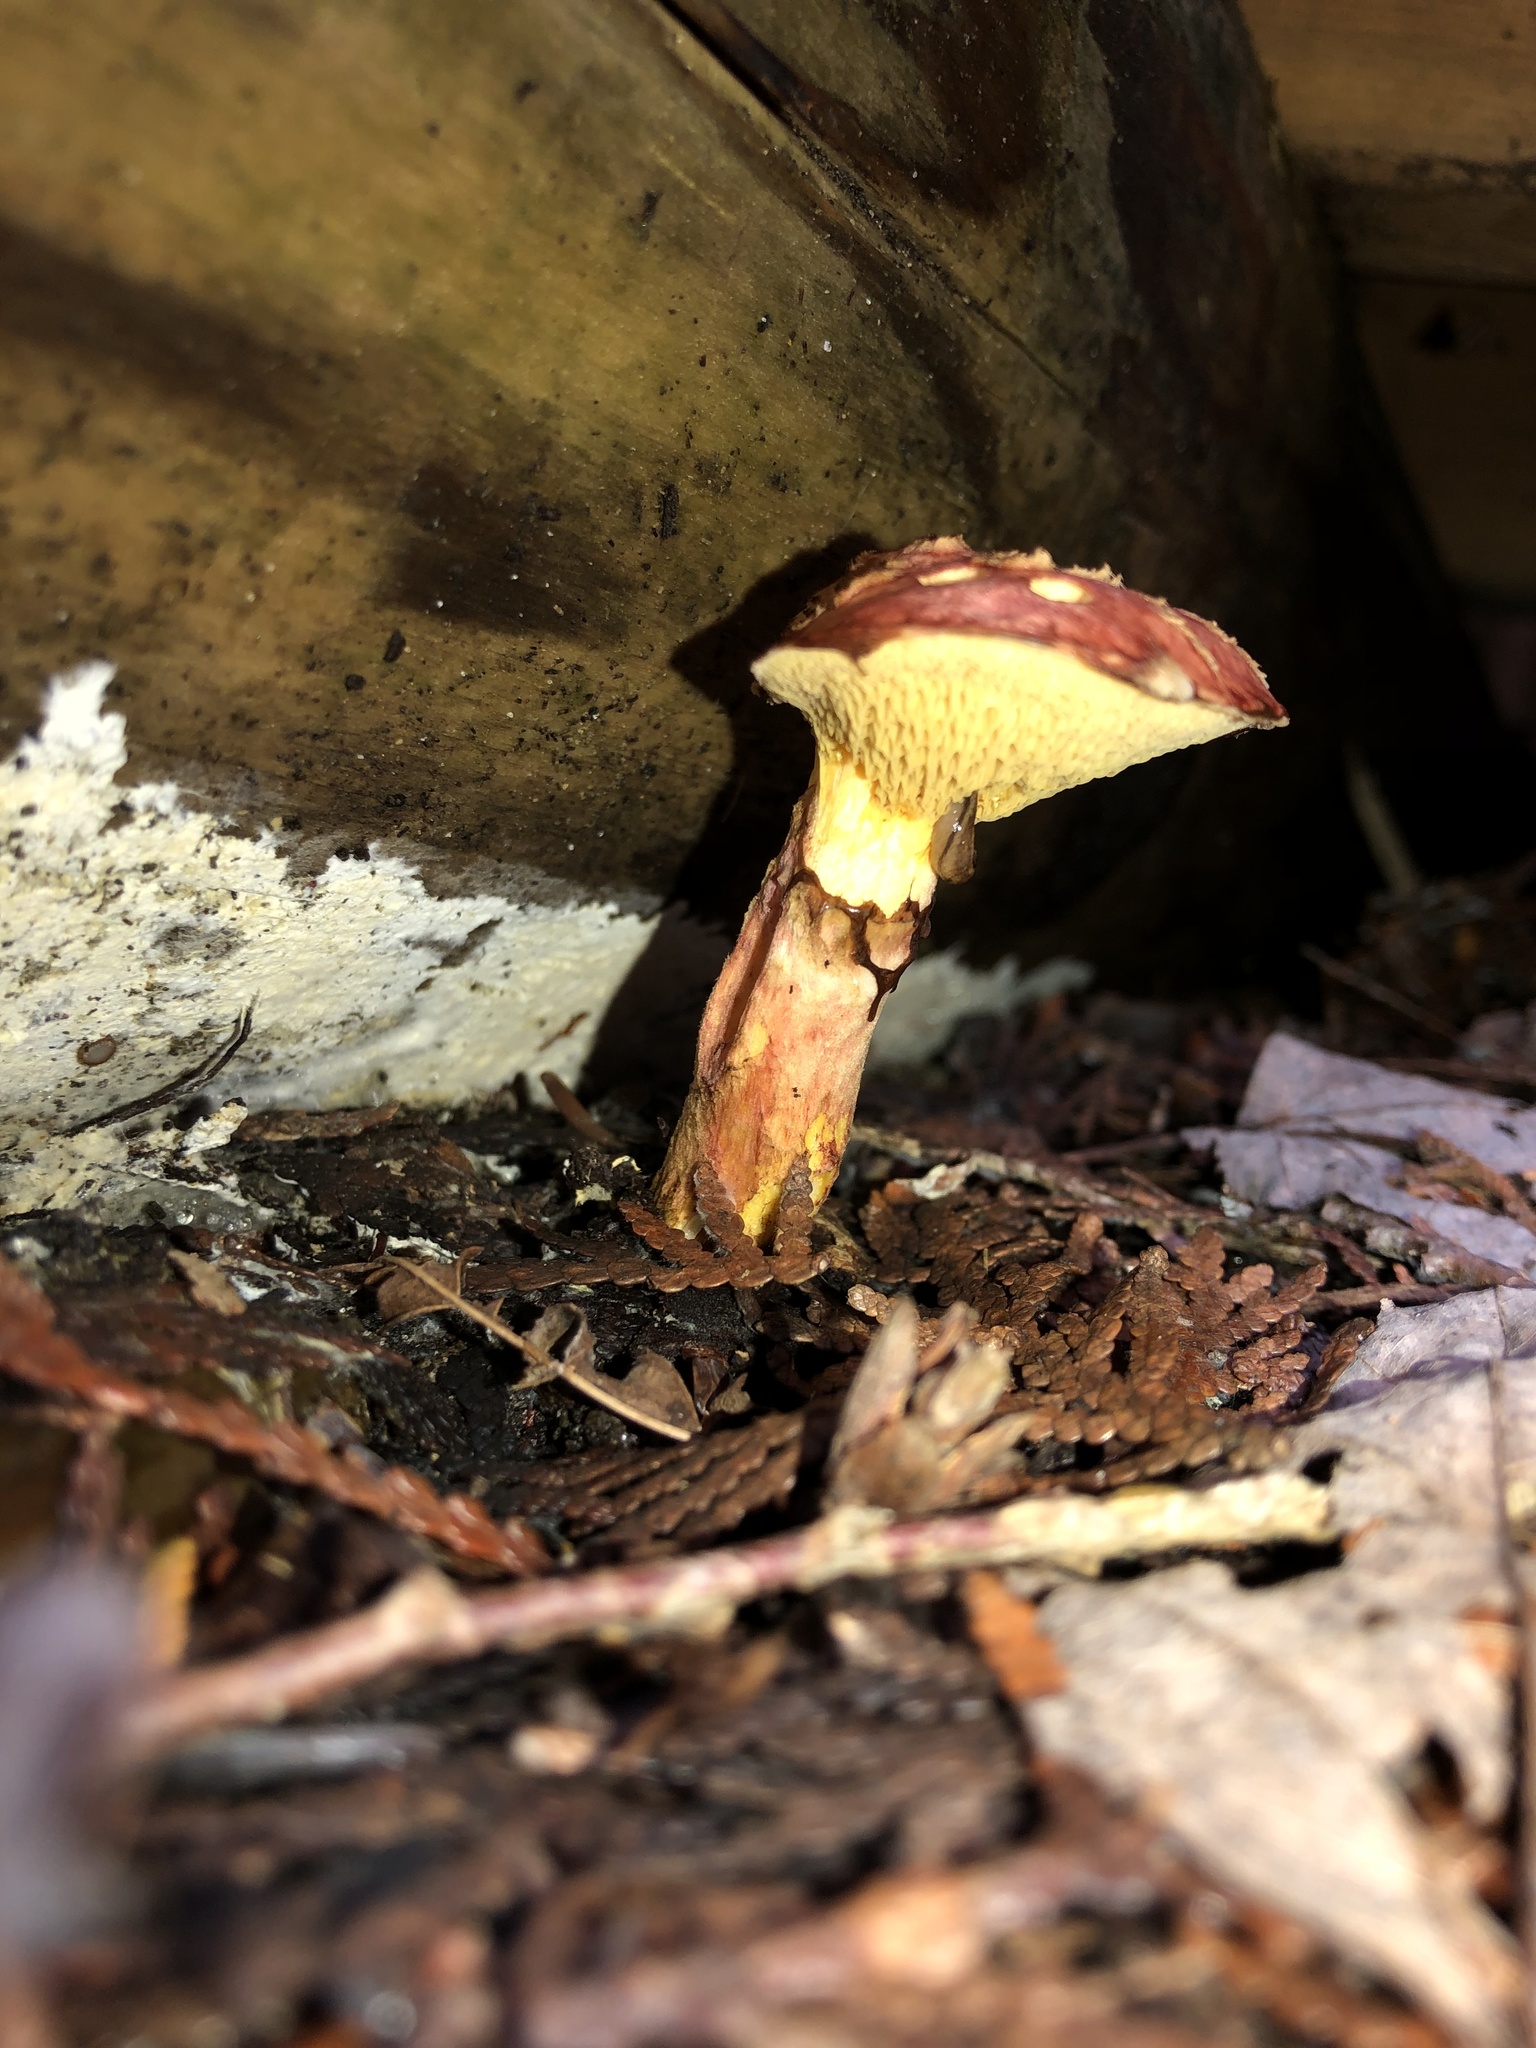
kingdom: Fungi
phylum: Basidiomycota
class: Agaricomycetes
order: Boletales
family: Suillaceae
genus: Boletinus
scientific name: Boletinus spectabilis
